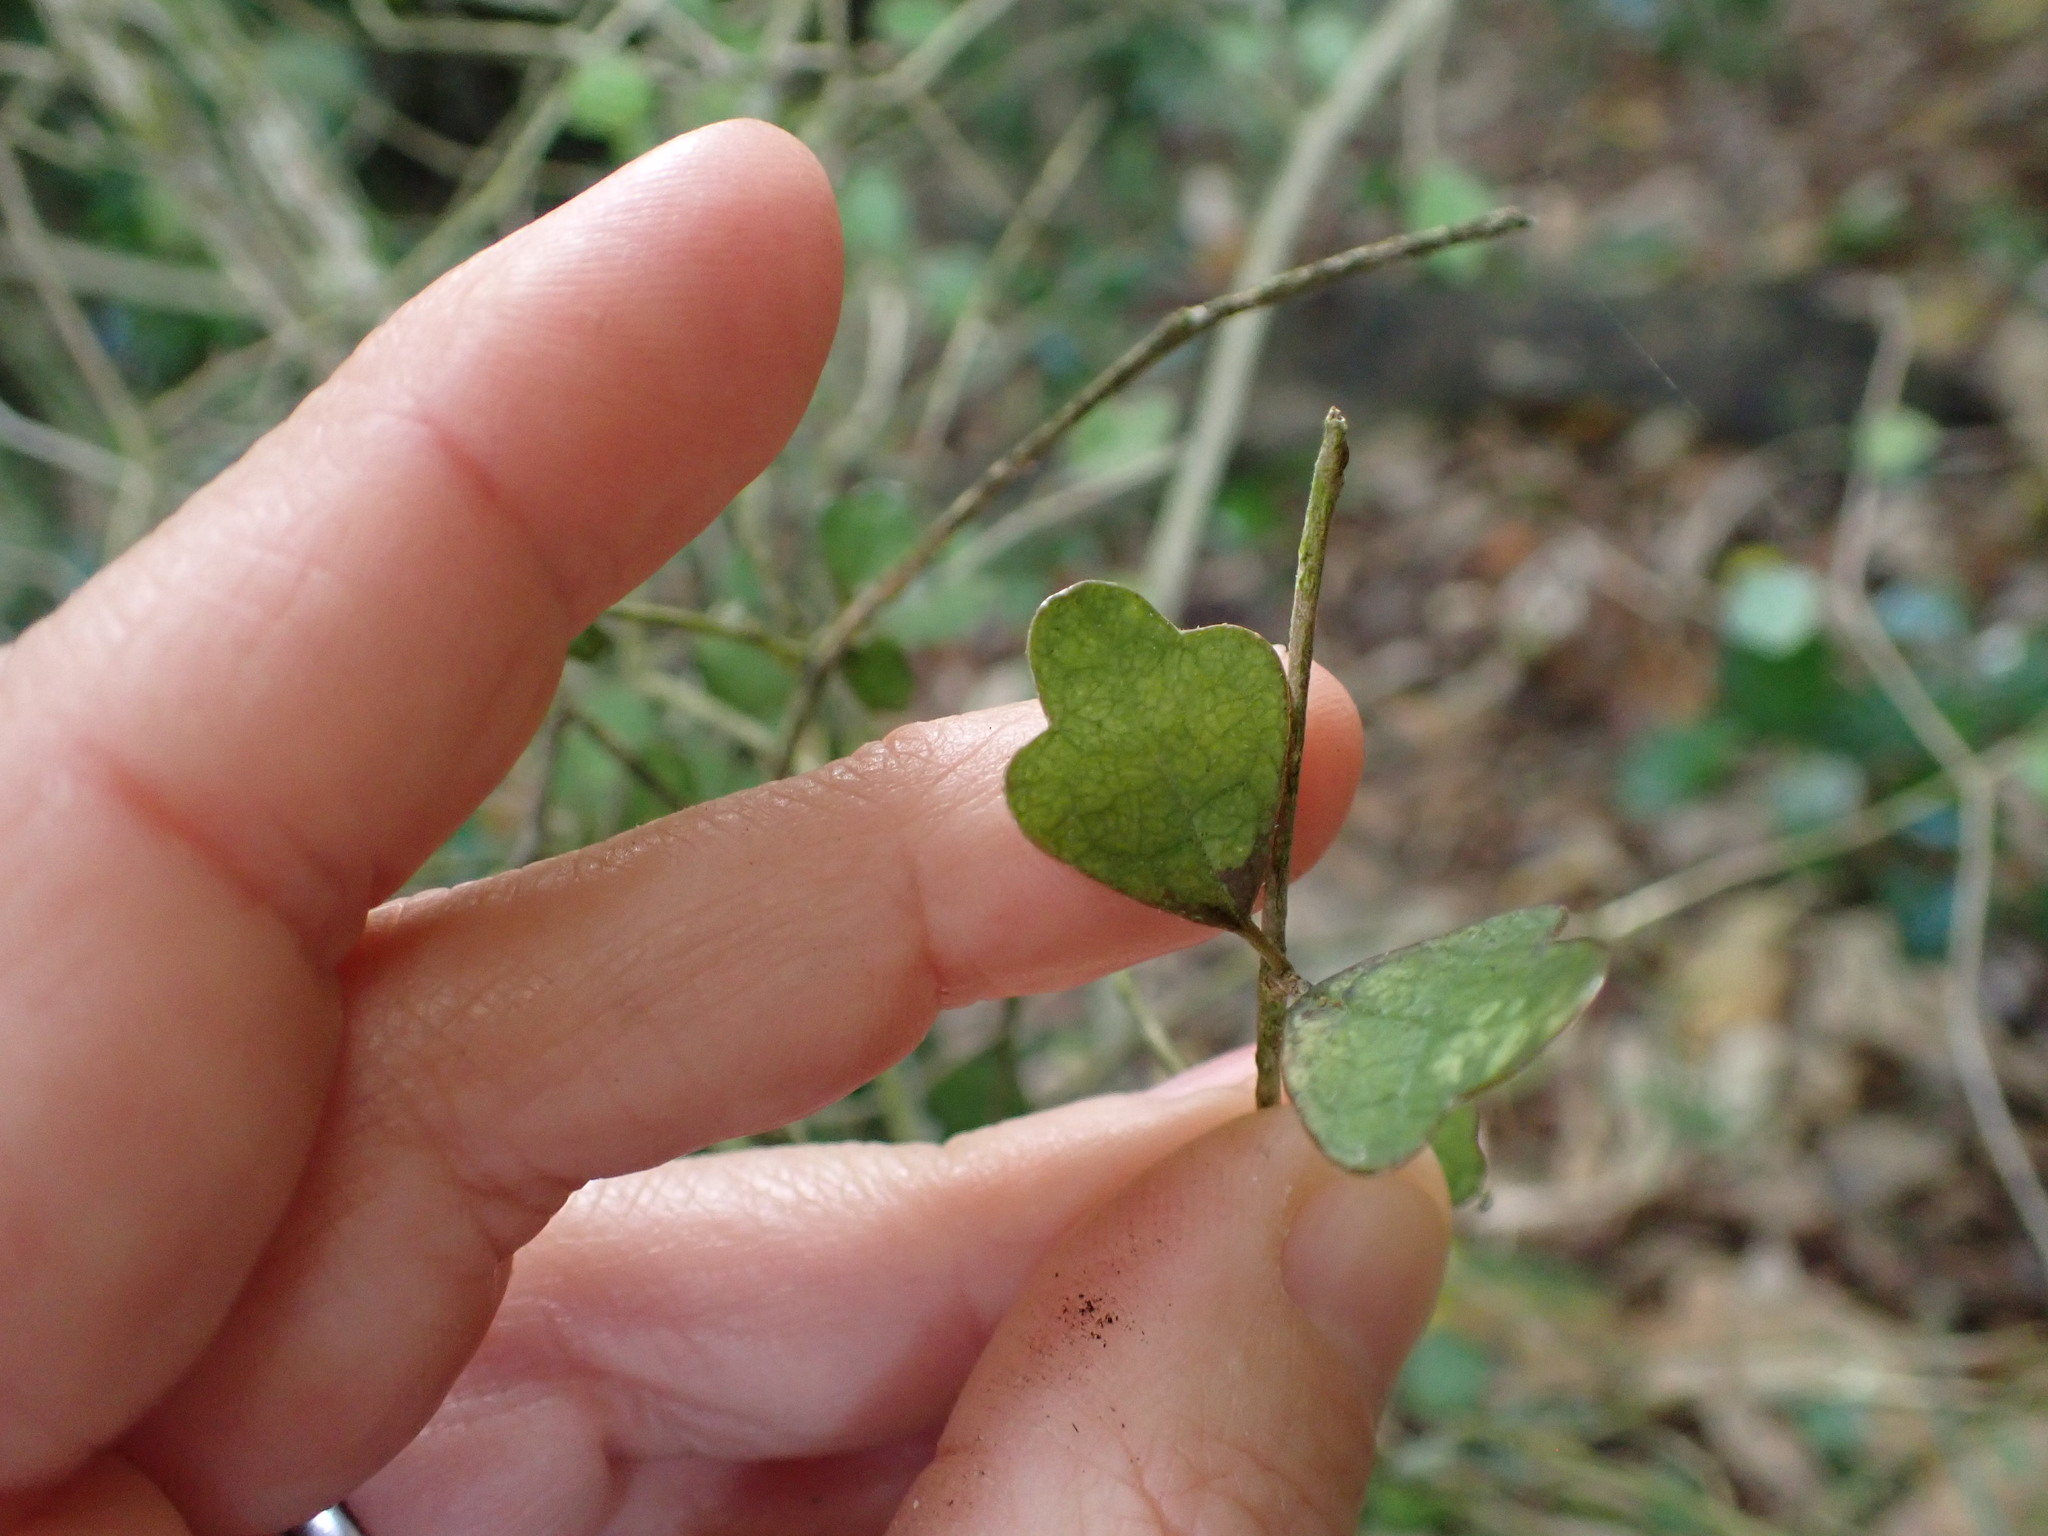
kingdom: Plantae
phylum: Tracheophyta
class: Magnoliopsida
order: Apiales
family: Pennantiaceae
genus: Pennantia
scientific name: Pennantia corymbosa
